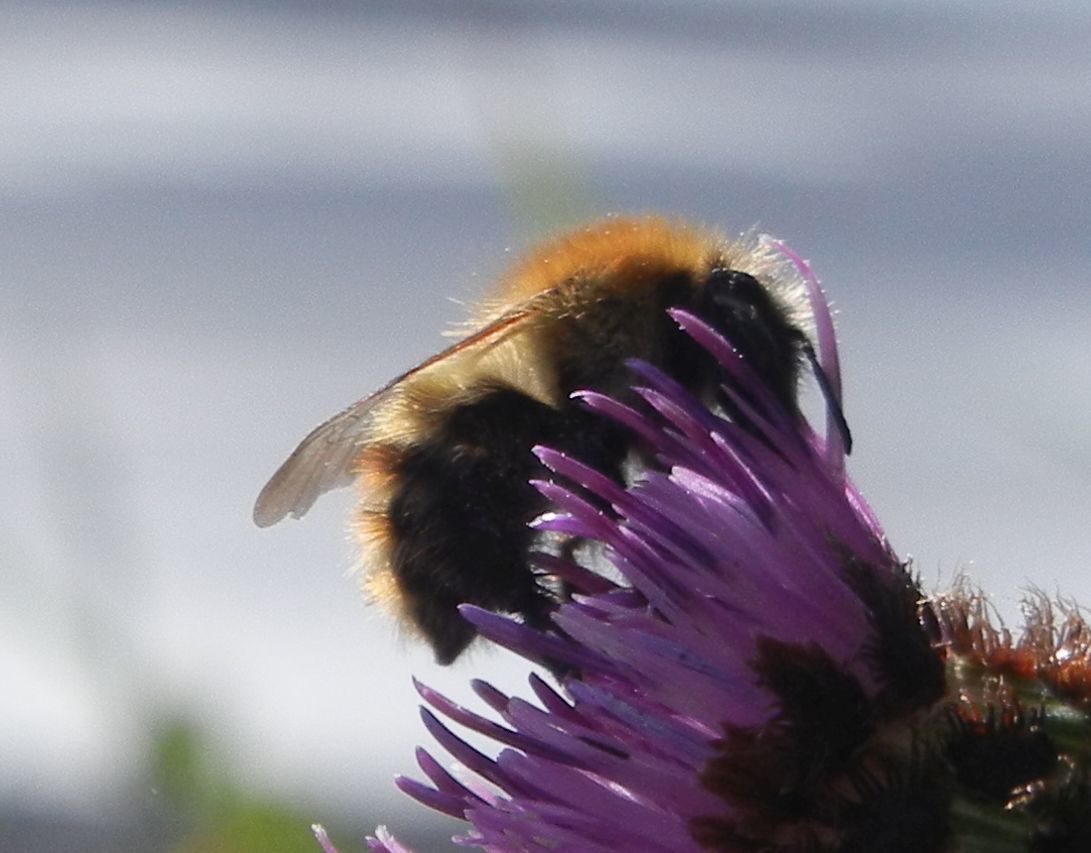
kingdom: Animalia
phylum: Arthropoda
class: Insecta
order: Hymenoptera
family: Apidae
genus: Bombus
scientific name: Bombus pascuorum
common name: Common carder bee
